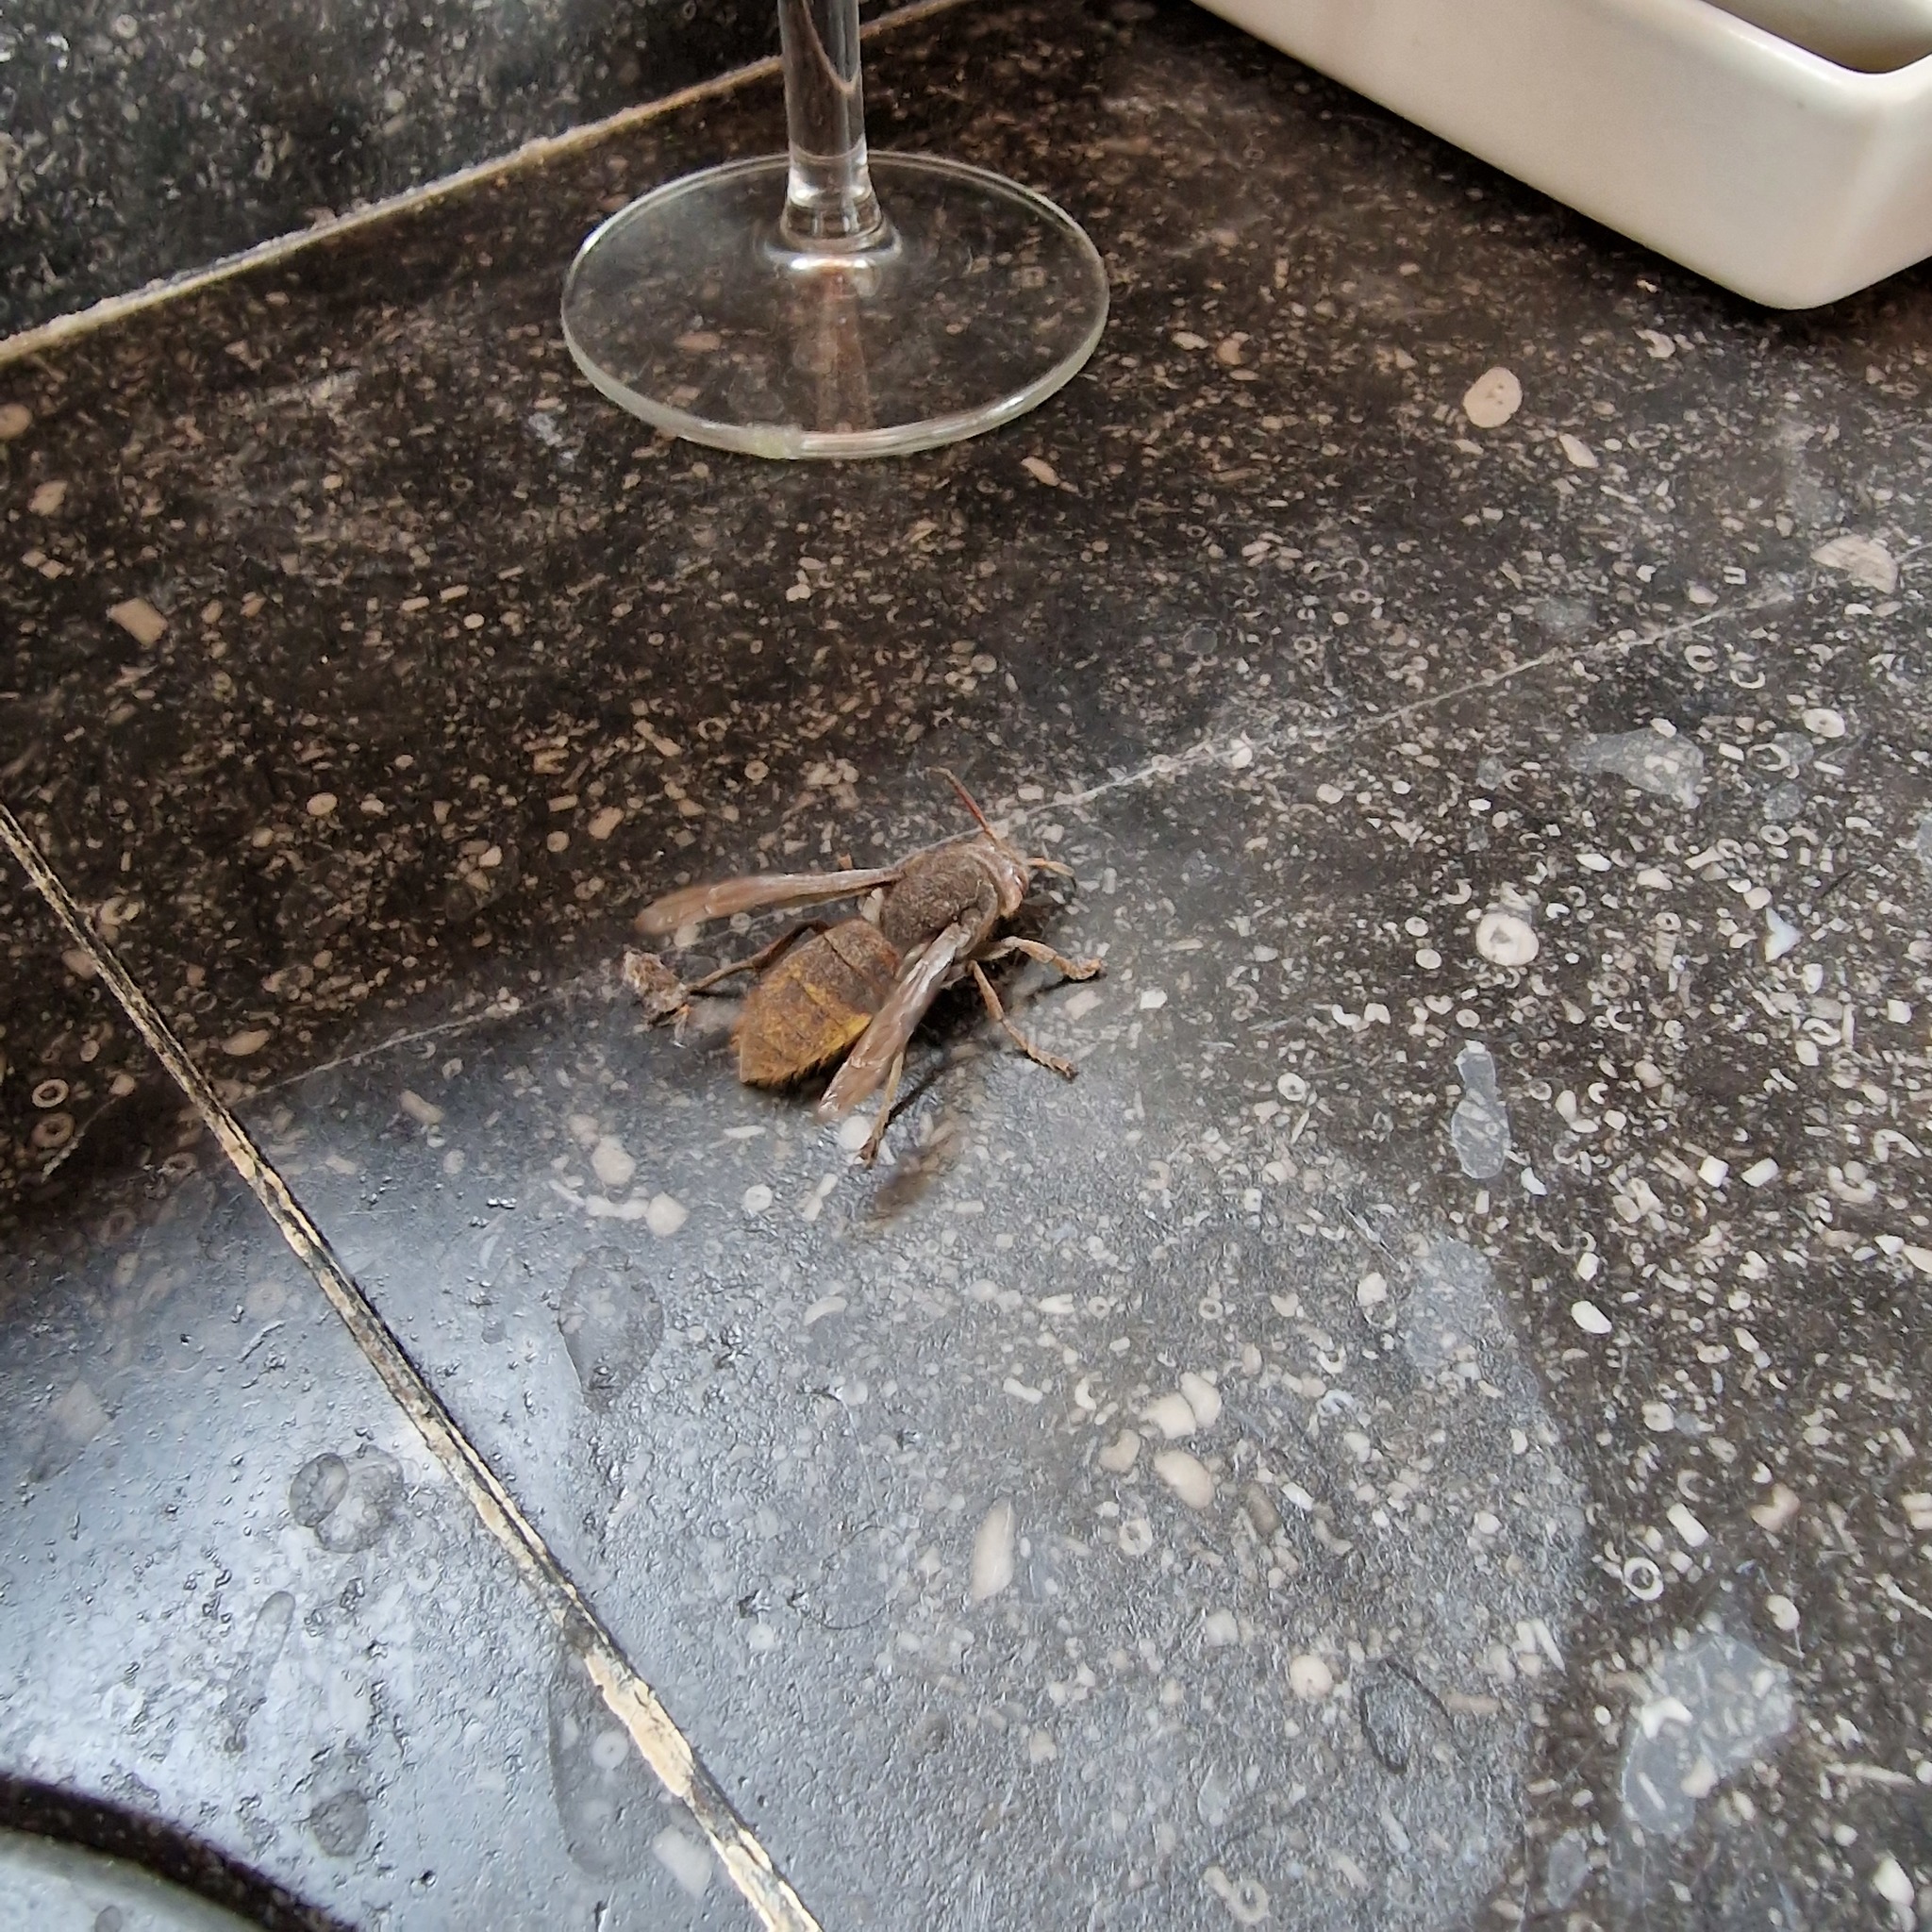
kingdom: Animalia
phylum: Arthropoda
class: Insecta
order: Hymenoptera
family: Vespidae
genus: Vespa
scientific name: Vespa crabro
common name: Hornet
